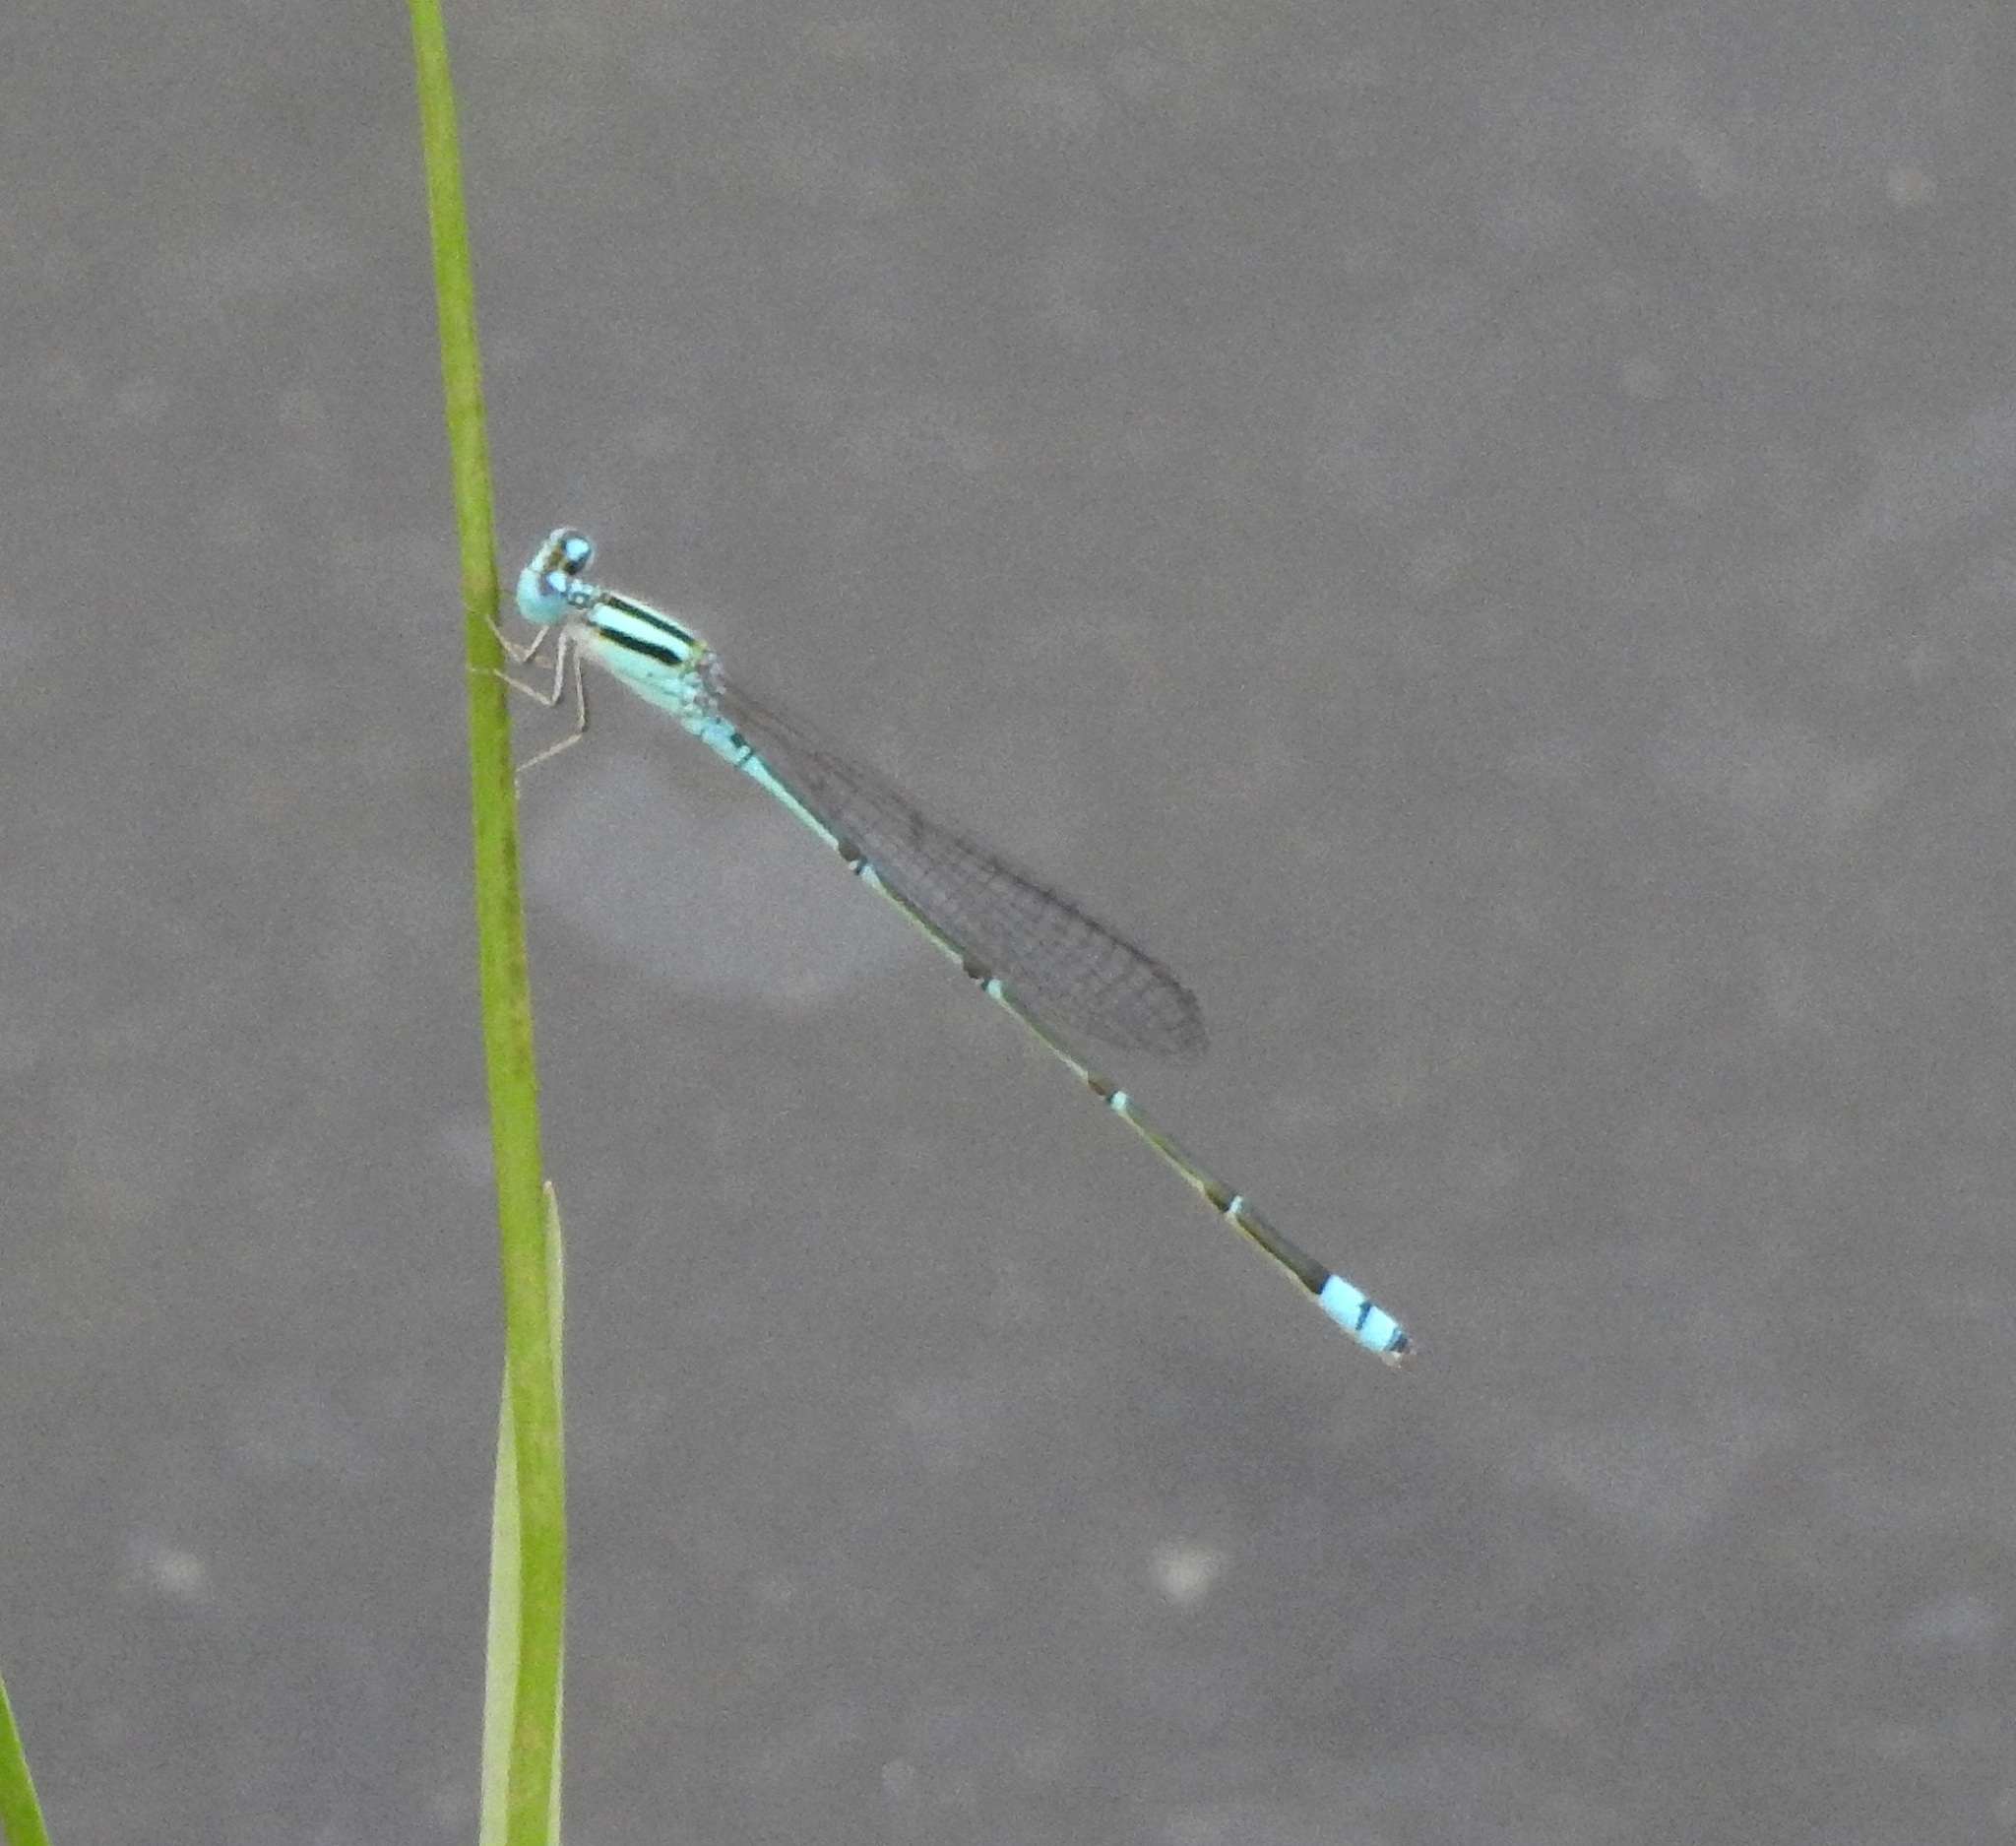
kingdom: Animalia
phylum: Arthropoda
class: Insecta
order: Odonata
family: Coenagrionidae
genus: Pseudagrion
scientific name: Pseudagrion microcephalum
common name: Blue riverdamsel
